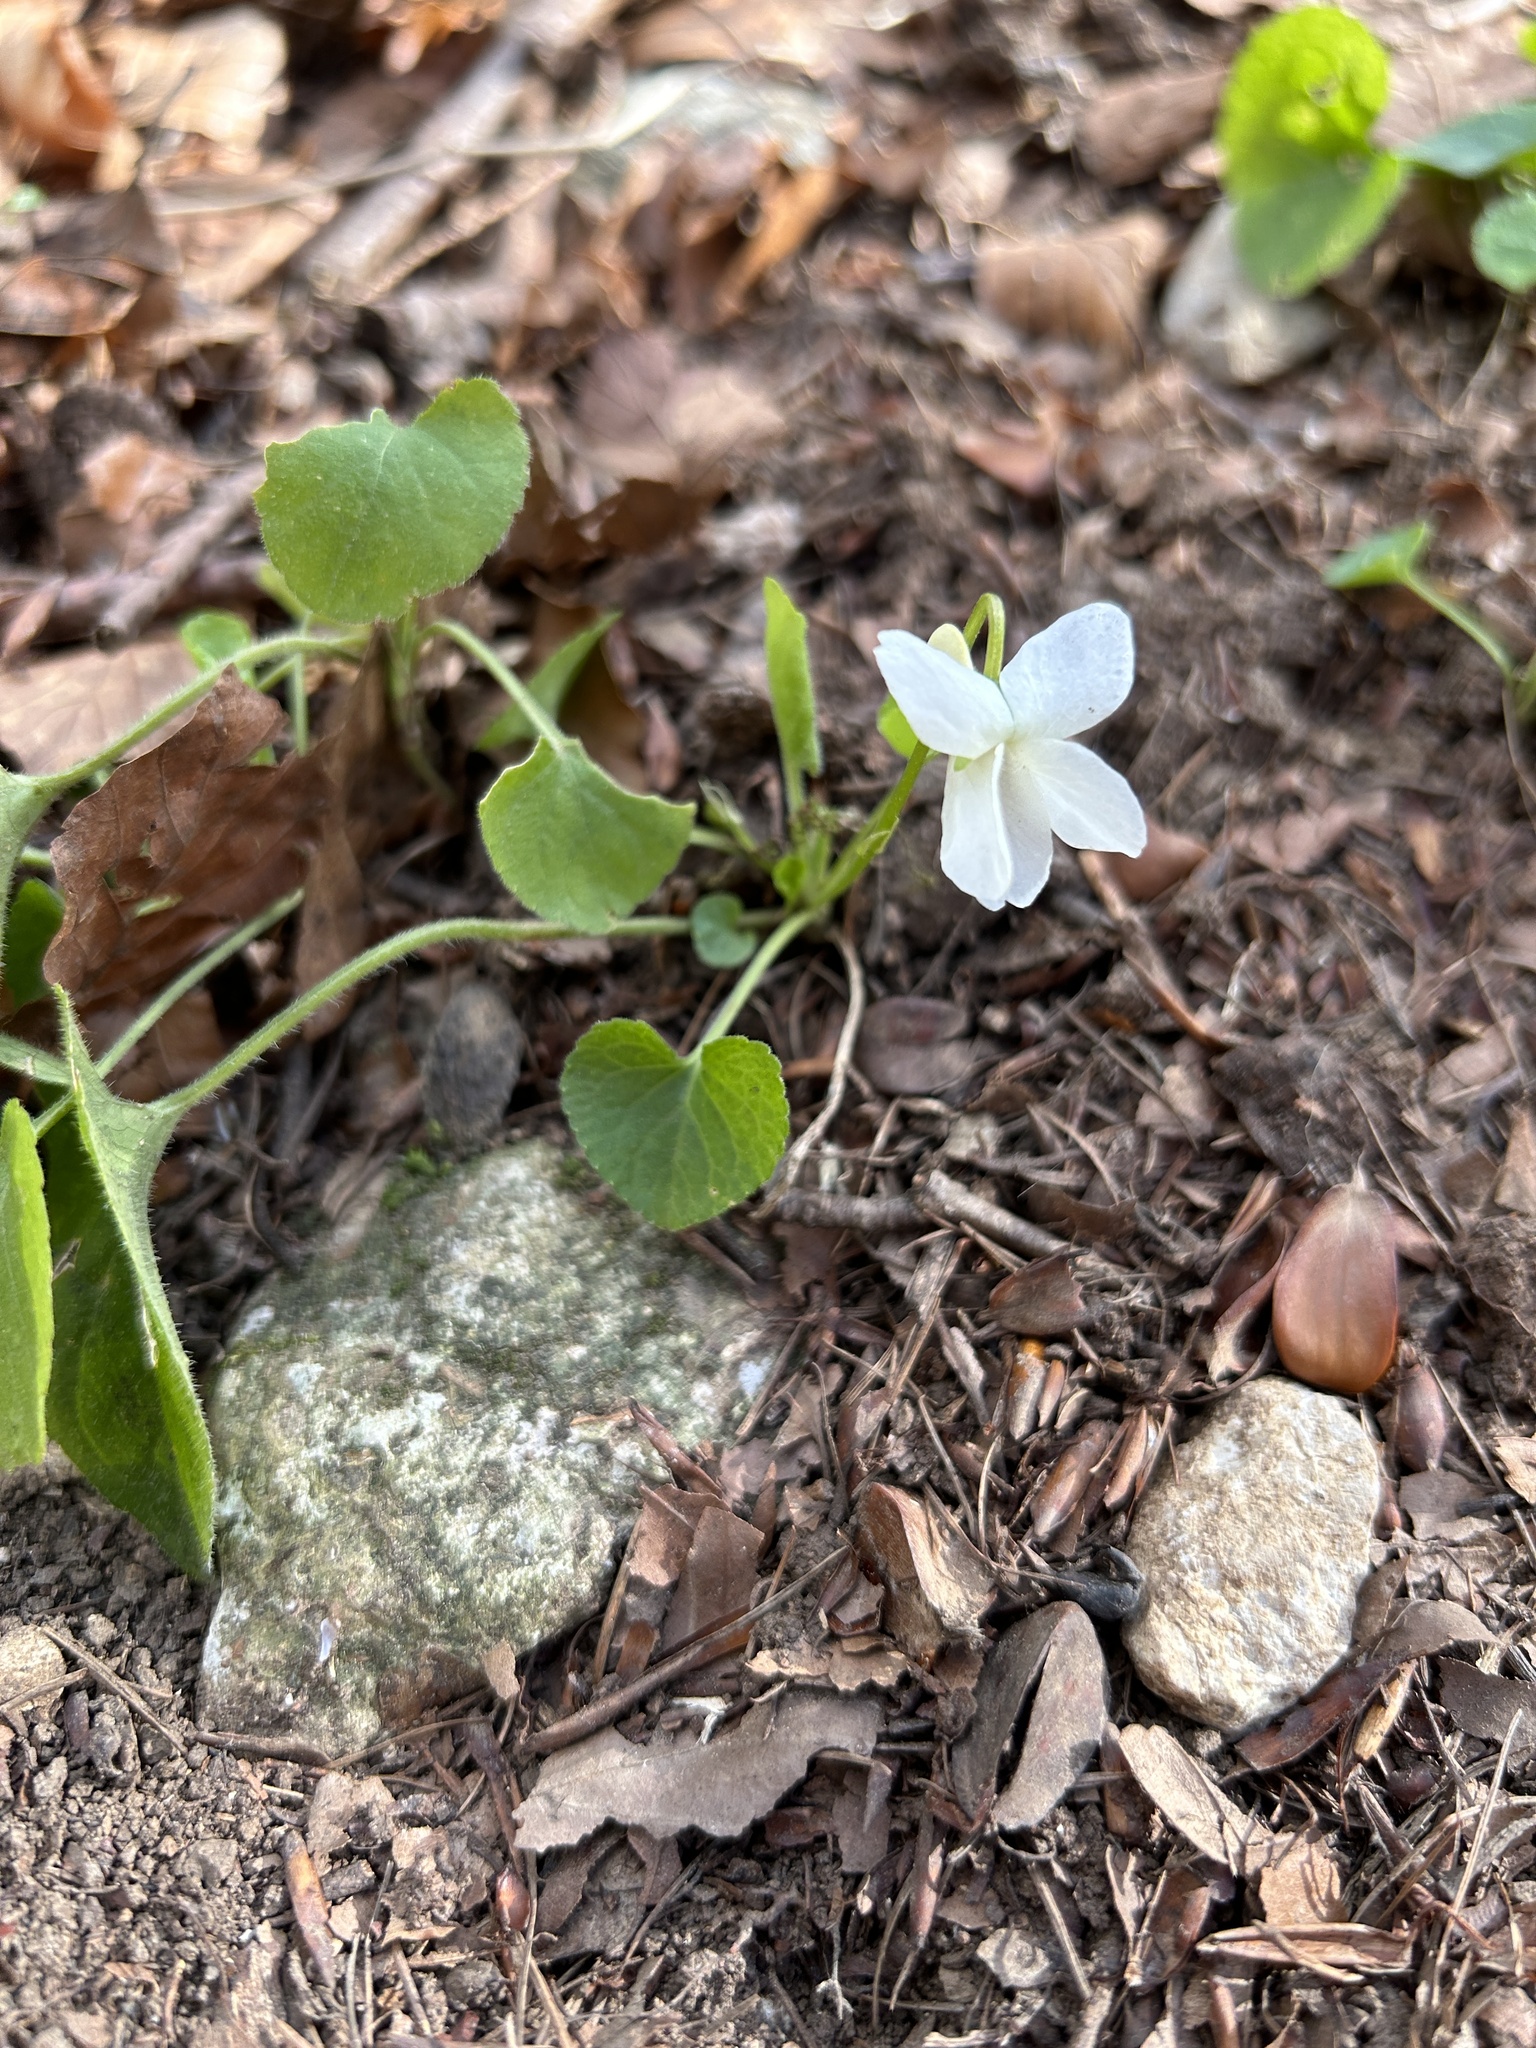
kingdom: Plantae
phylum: Tracheophyta
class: Magnoliopsida
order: Malpighiales
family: Violaceae
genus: Viola
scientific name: Viola alba
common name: White violet
